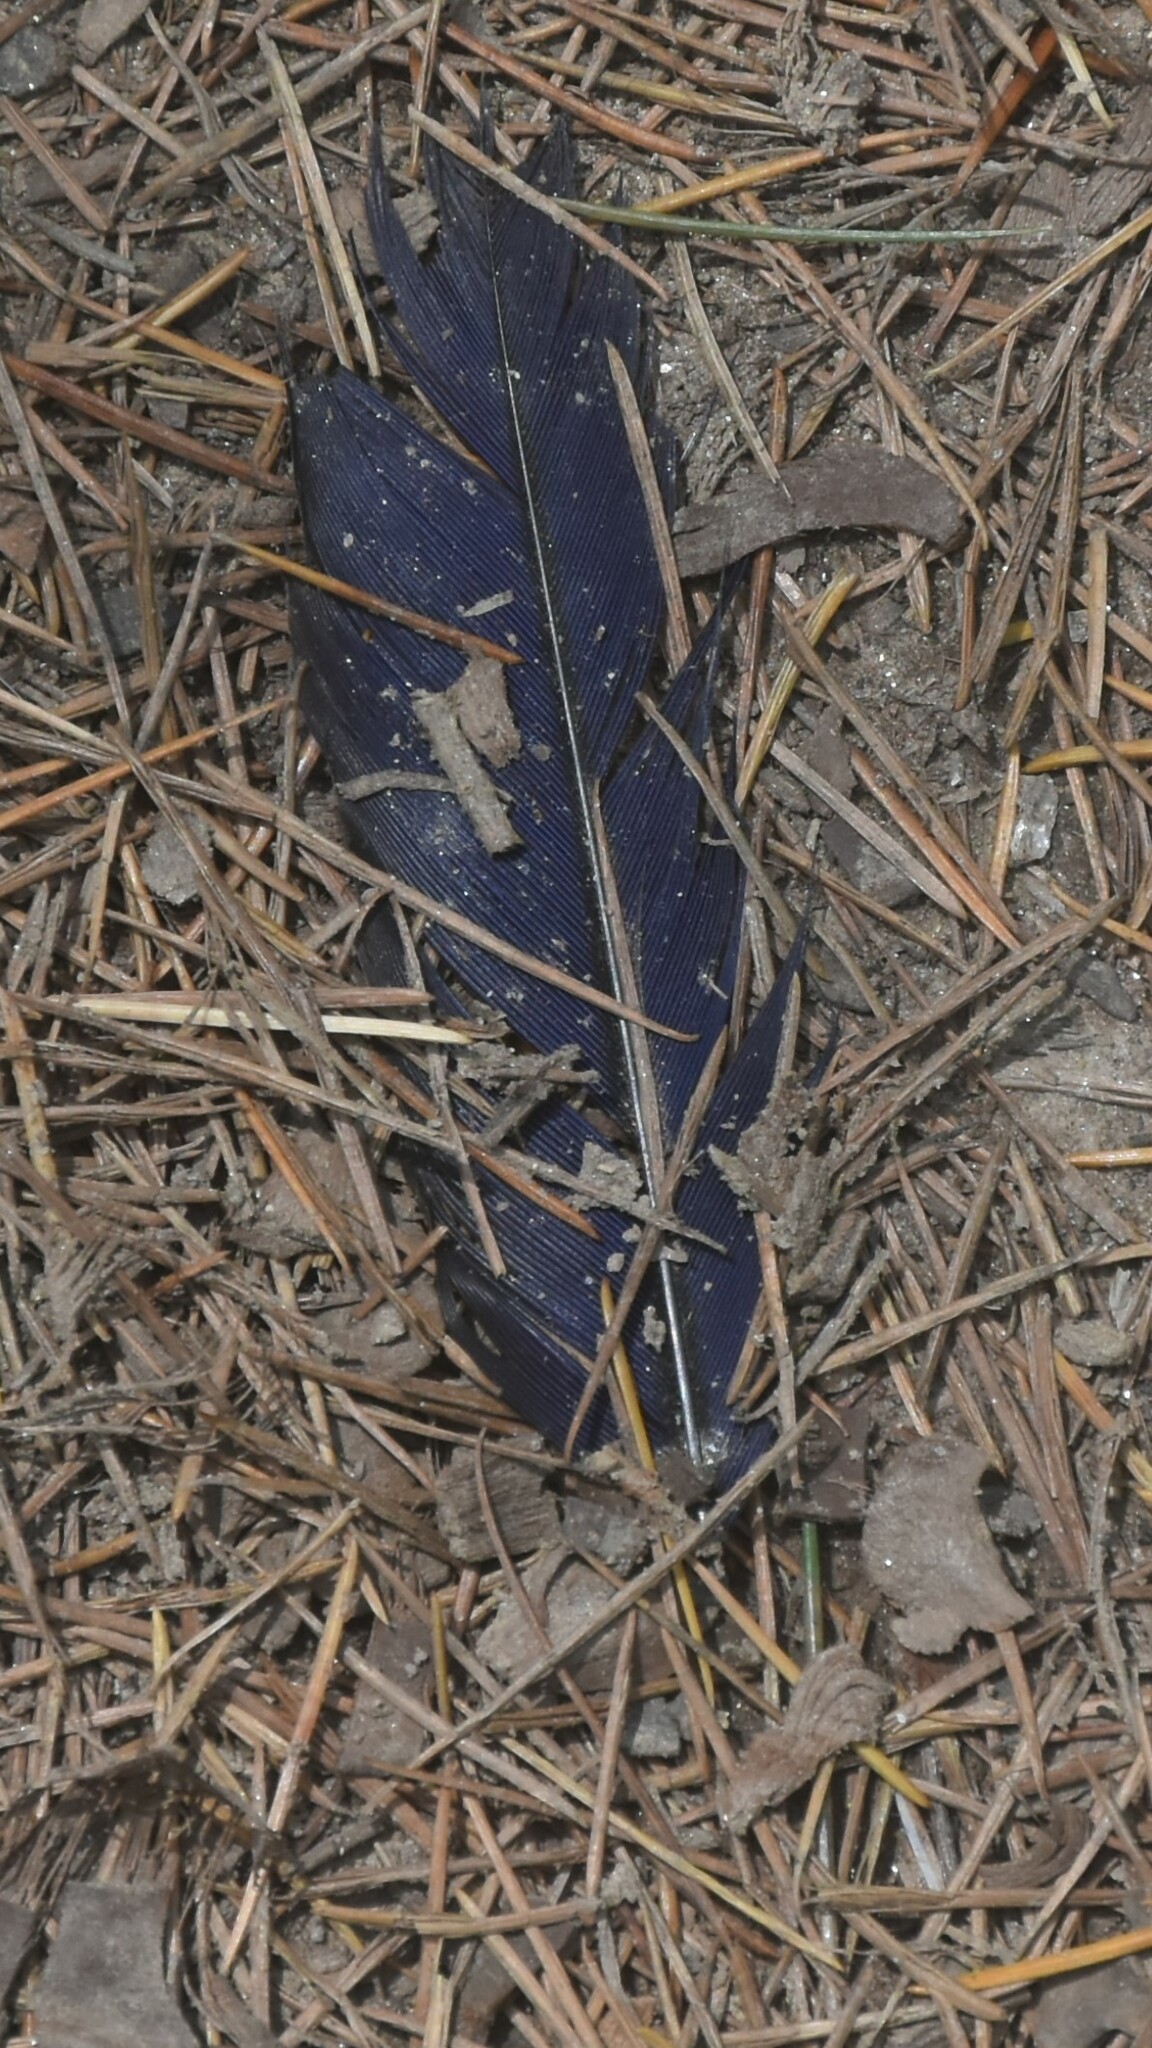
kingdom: Animalia
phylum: Chordata
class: Aves
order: Passeriformes
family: Muscicapidae
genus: Myophonus
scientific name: Myophonus caeruleus
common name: Blue whistling-thrush
